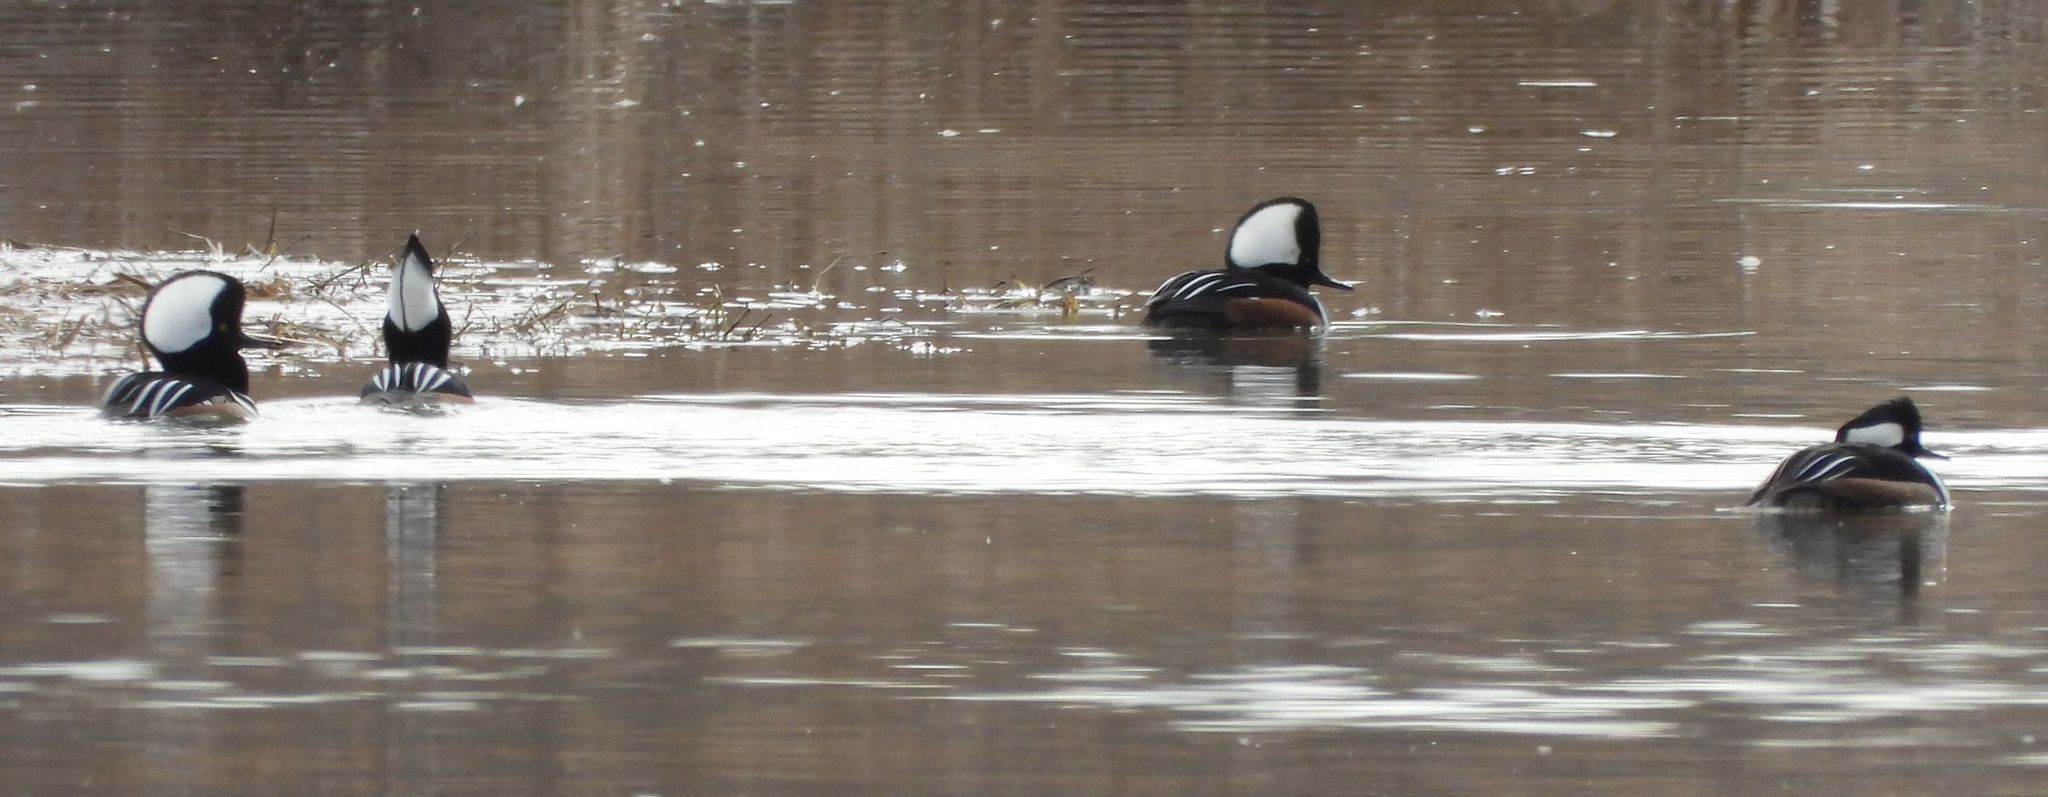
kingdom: Animalia
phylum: Chordata
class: Aves
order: Anseriformes
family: Anatidae
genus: Lophodytes
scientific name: Lophodytes cucullatus
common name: Hooded merganser
